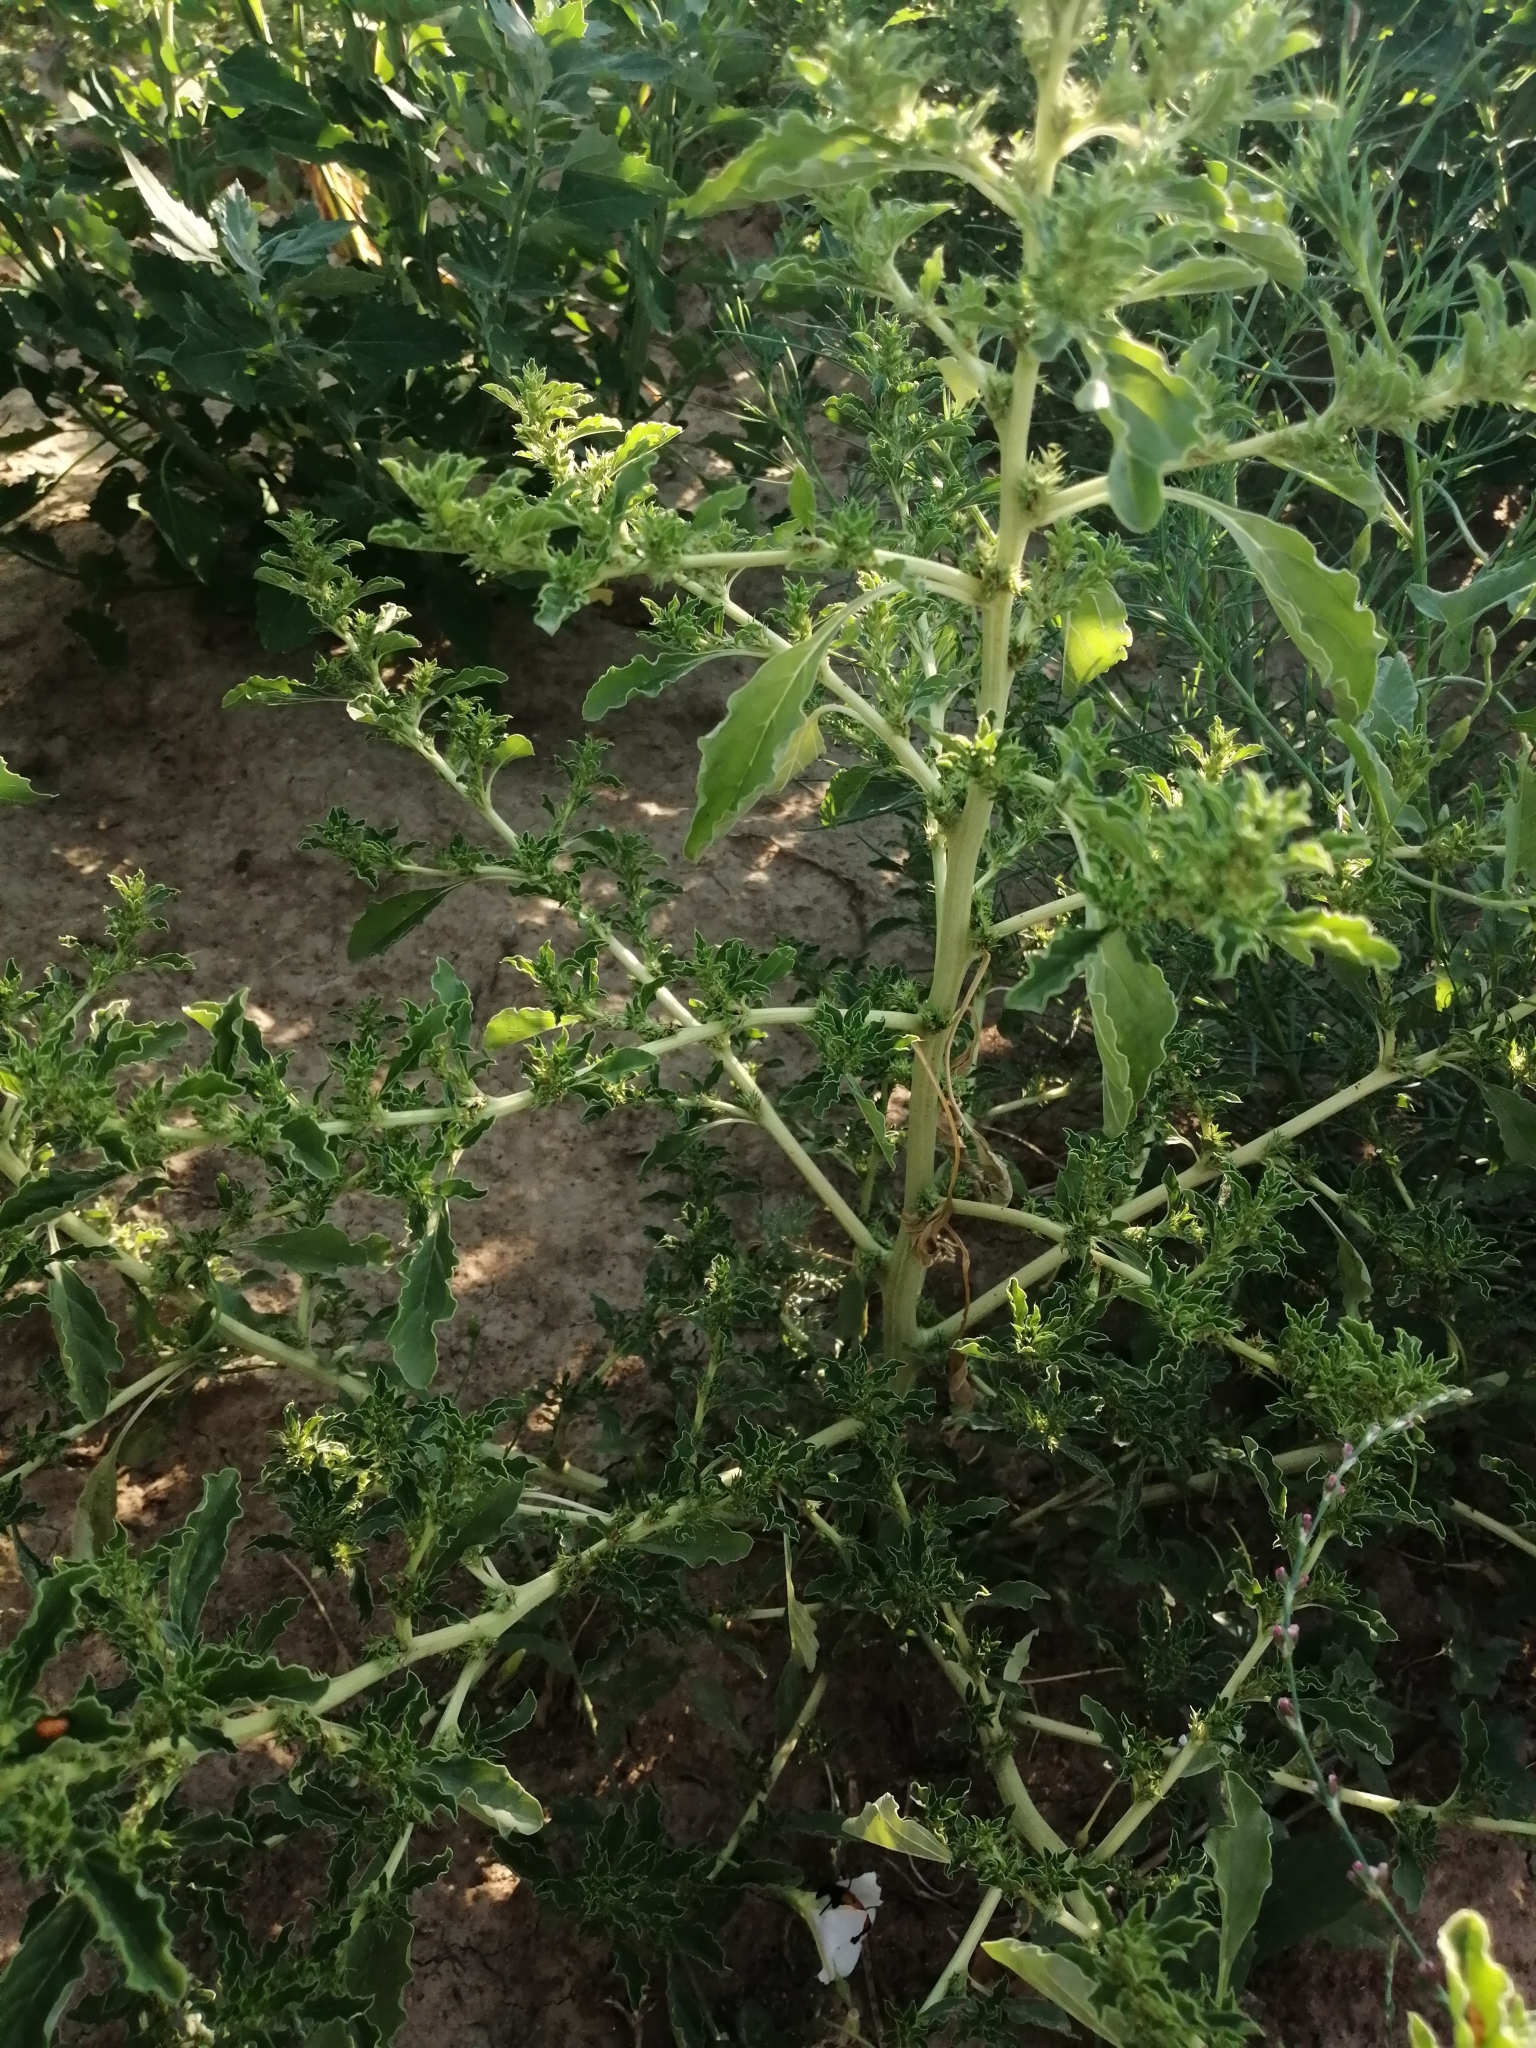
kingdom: Plantae
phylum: Tracheophyta
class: Magnoliopsida
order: Caryophyllales
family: Amaranthaceae
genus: Amaranthus
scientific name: Amaranthus albus
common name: White pigweed
